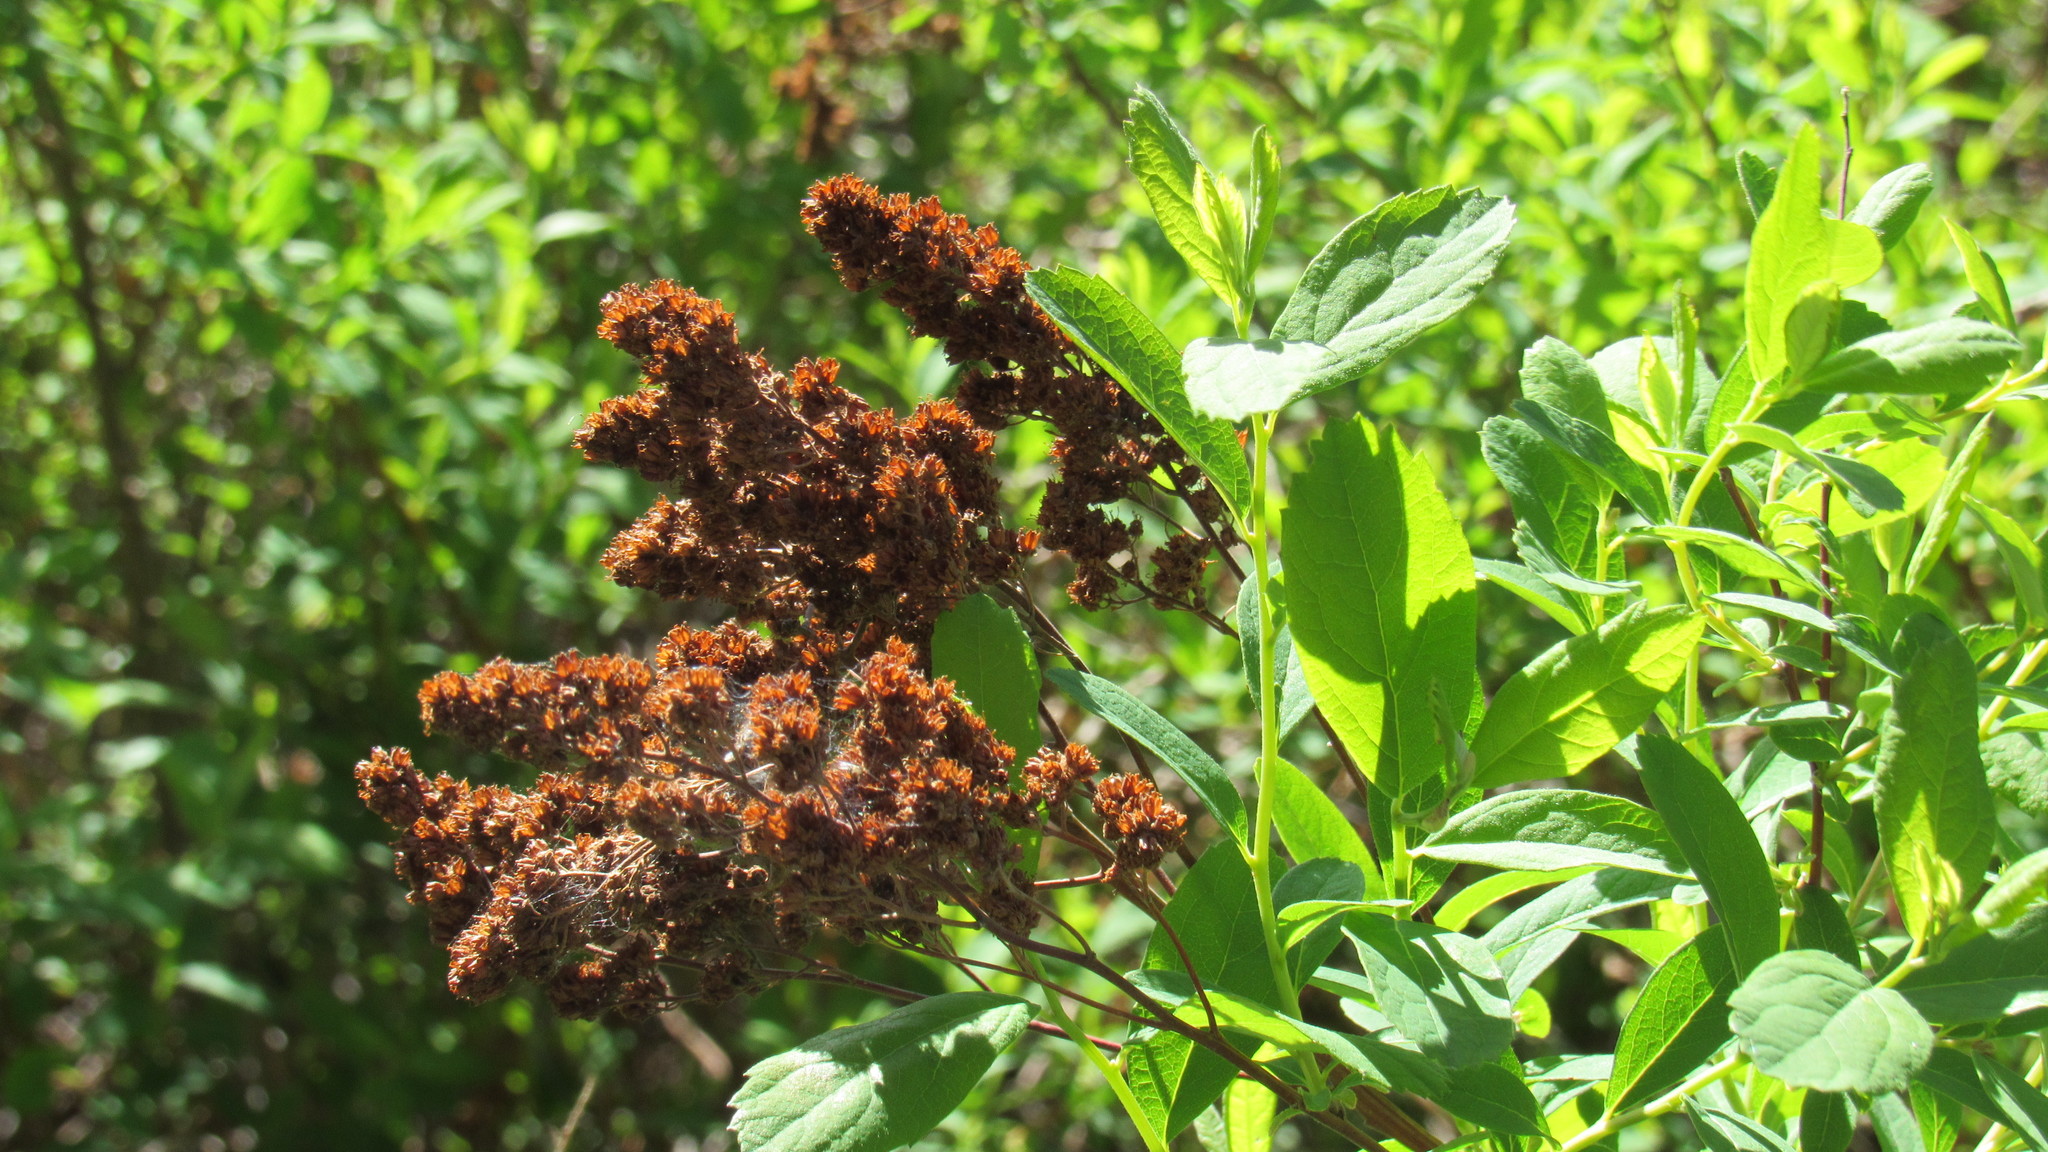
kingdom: Plantae
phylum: Tracheophyta
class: Magnoliopsida
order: Rosales
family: Rosaceae
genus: Spiraea
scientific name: Spiraea douglasii
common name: Steeplebush
